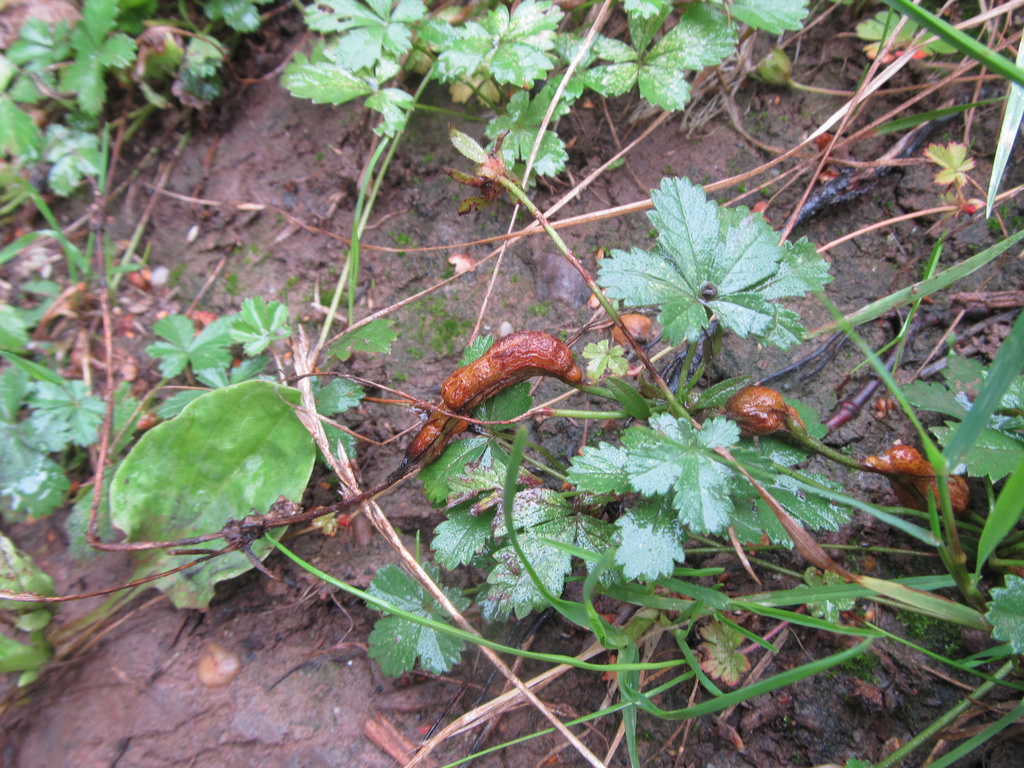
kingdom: Animalia
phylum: Arthropoda
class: Insecta
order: Hymenoptera
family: Cynipidae
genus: Xestophanes
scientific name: Xestophanes potentillae
